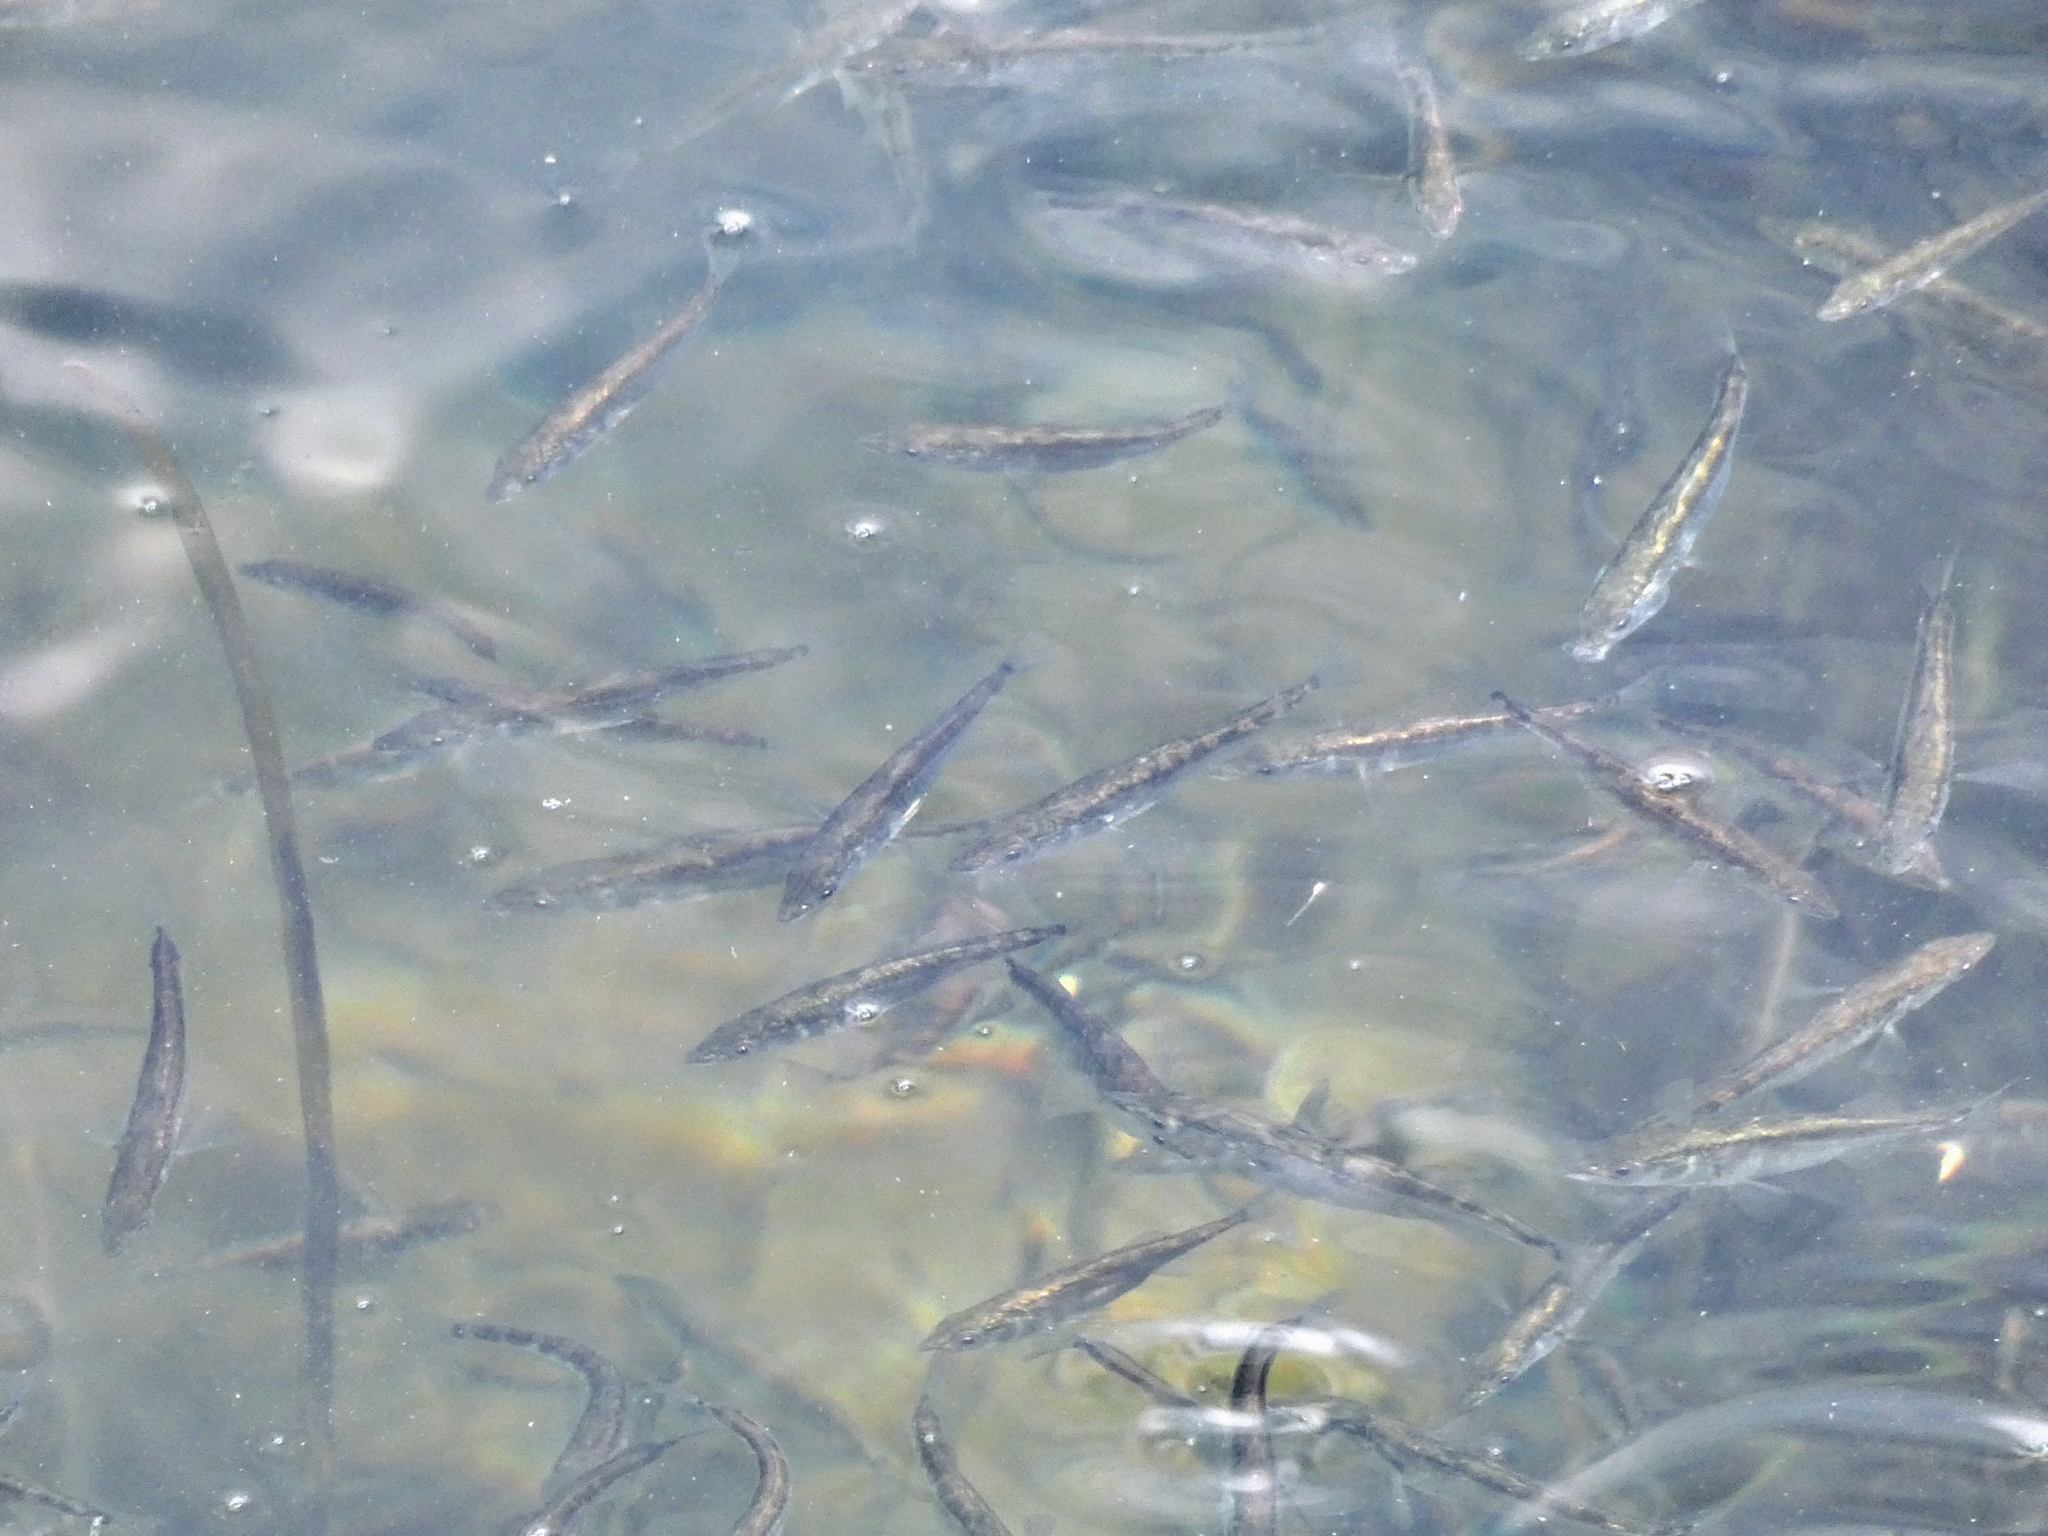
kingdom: Animalia
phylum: Chordata
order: Gasterosteiformes
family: Gasterosteidae
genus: Gasterosteus
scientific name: Gasterosteus aculeatus
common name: Three-spined stickleback
